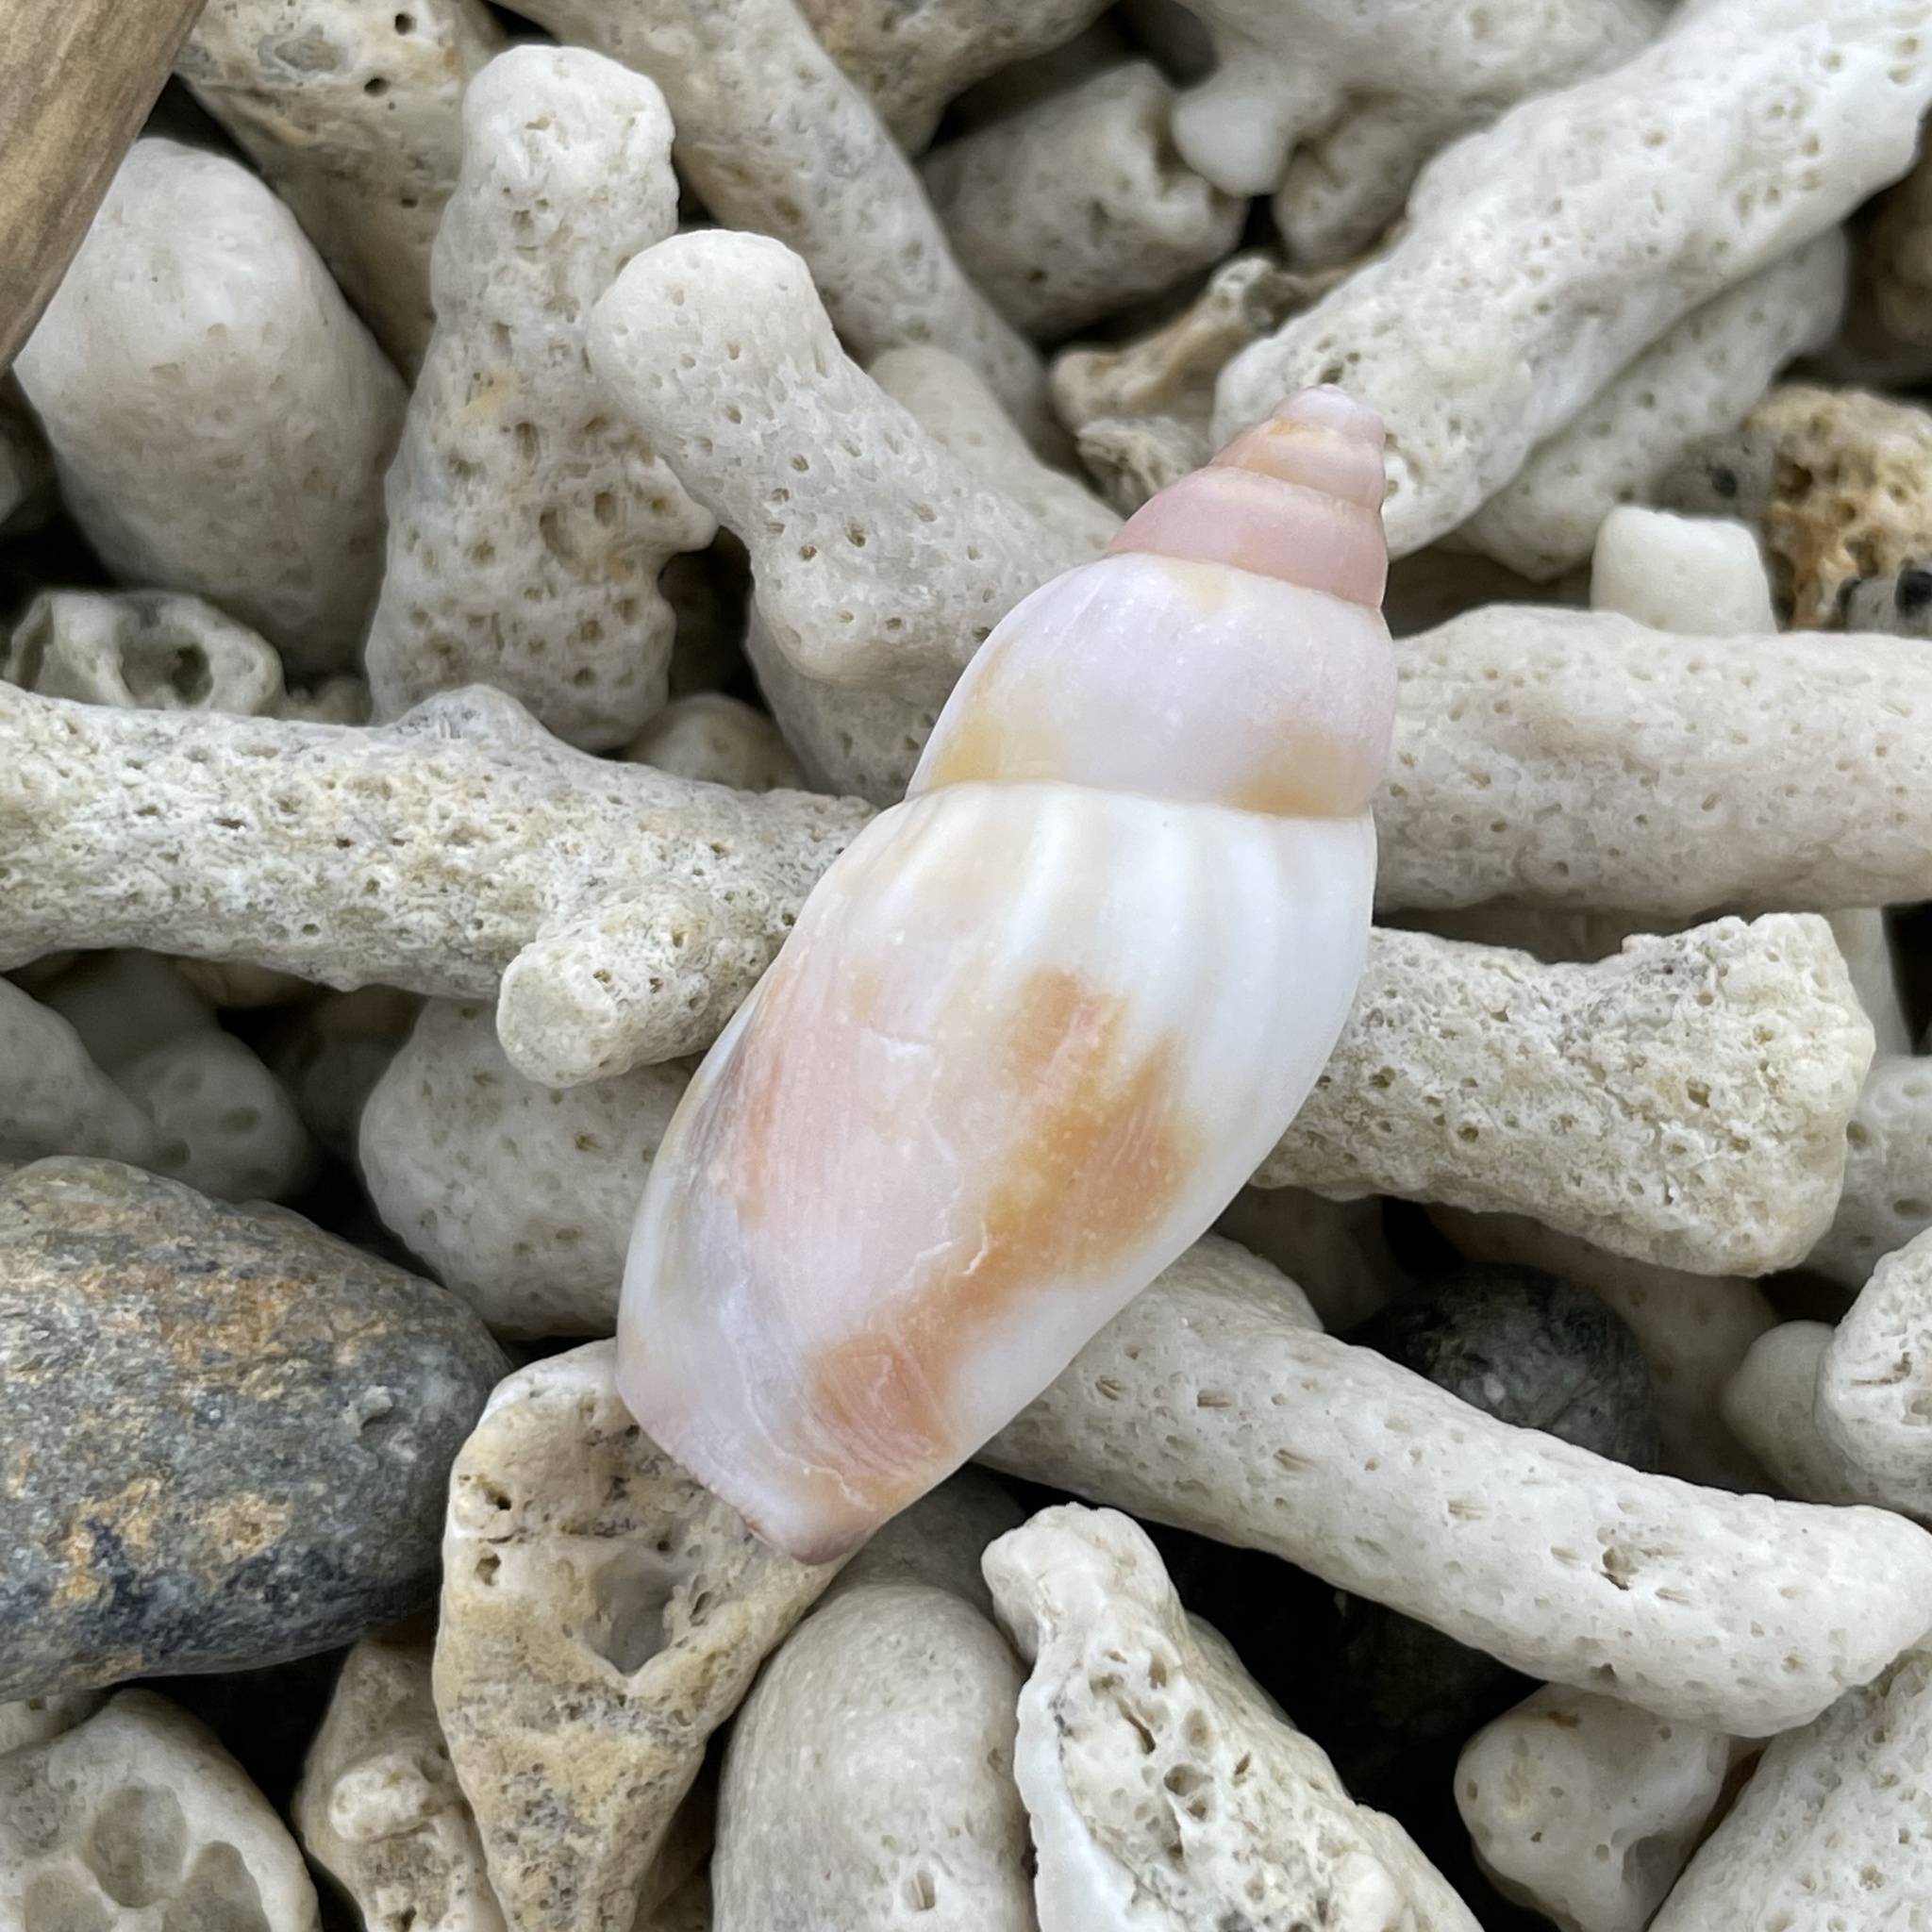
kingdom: Animalia
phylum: Mollusca
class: Gastropoda
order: Littorinimorpha
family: Strombidae
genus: Tridentarius
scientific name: Tridentarius dentatus
